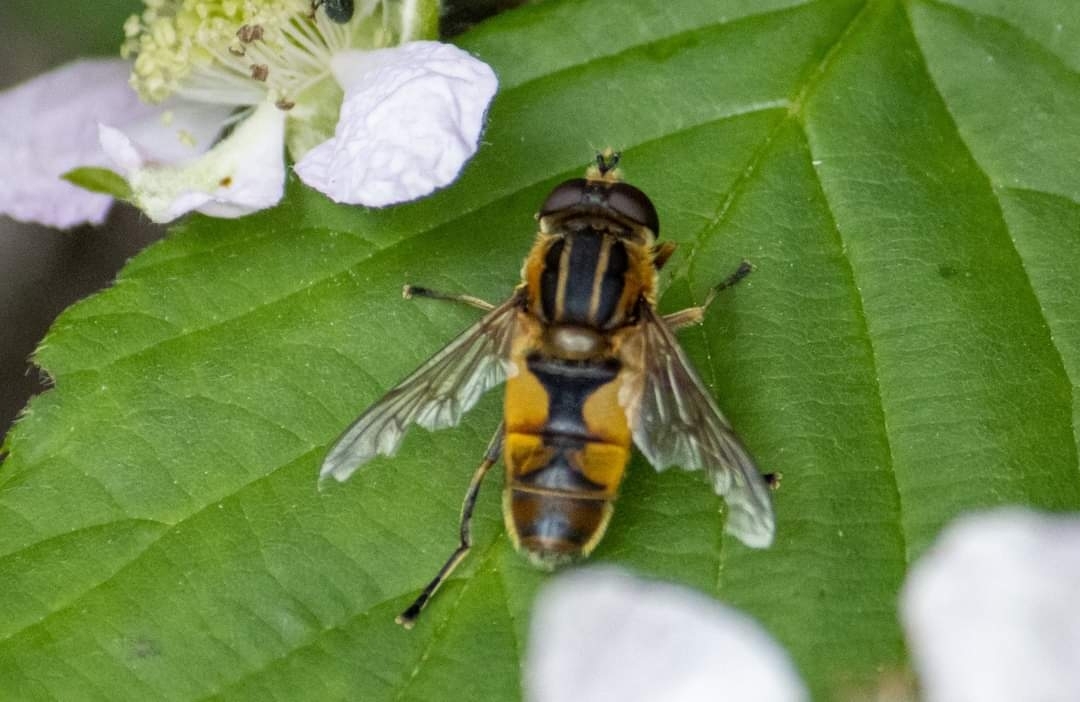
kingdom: Animalia
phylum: Arthropoda
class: Insecta
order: Diptera
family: Syrphidae
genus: Helophilus
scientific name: Helophilus hybridus
